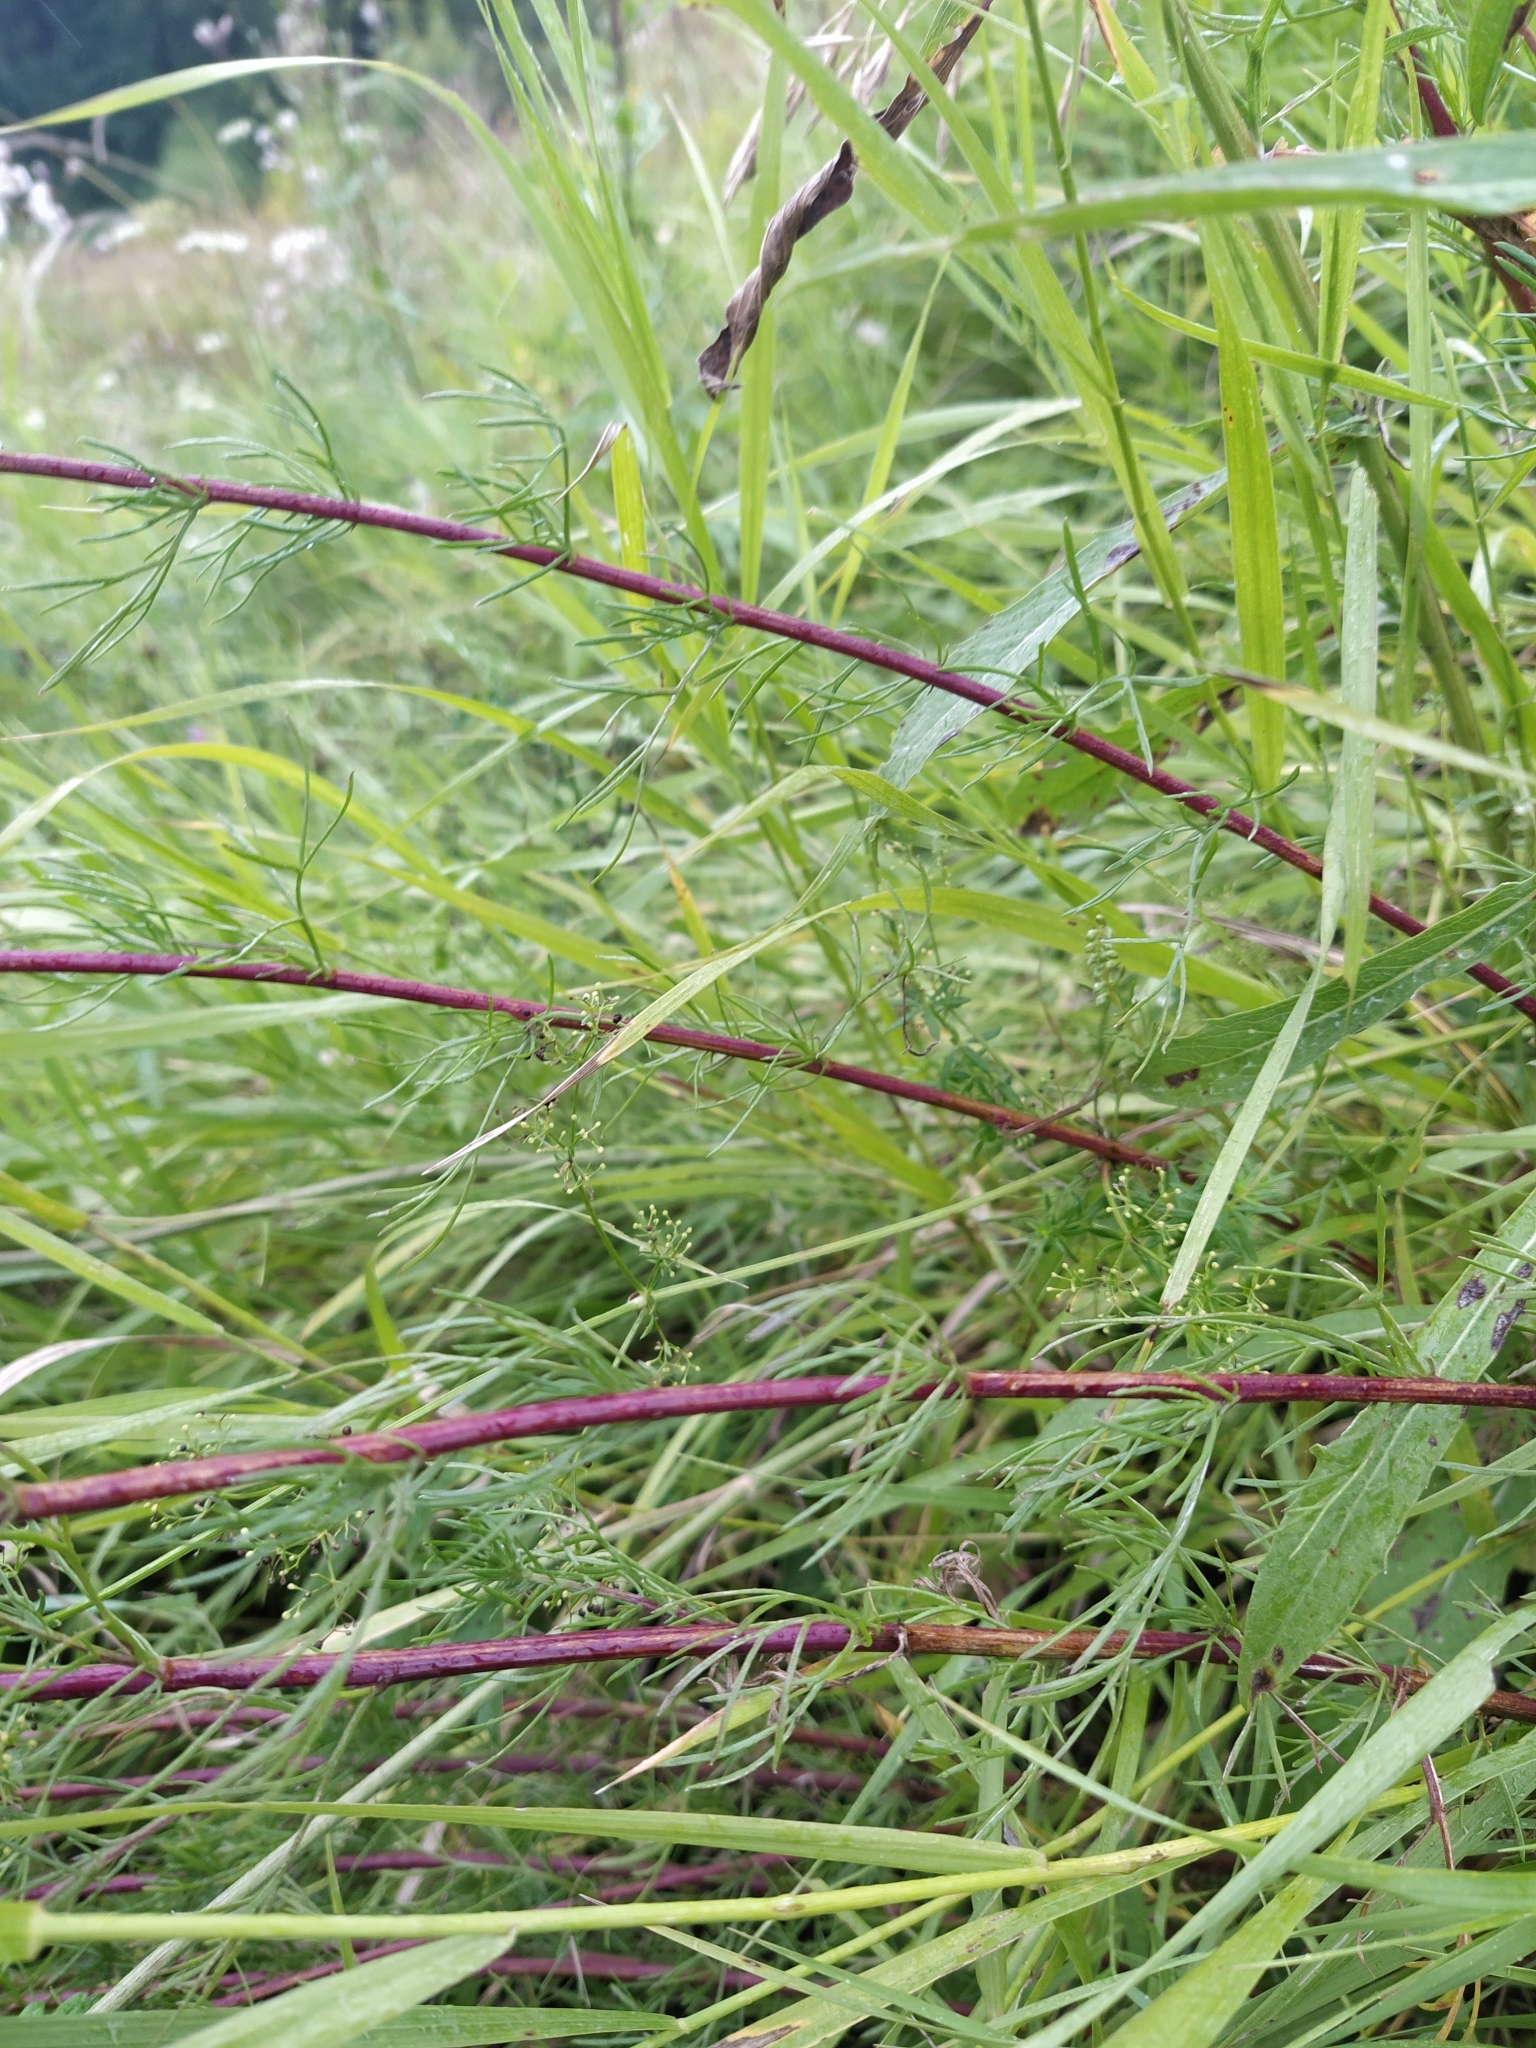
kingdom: Plantae
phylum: Tracheophyta
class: Magnoliopsida
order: Asterales
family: Asteraceae
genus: Artemisia
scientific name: Artemisia campestris
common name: Field wormwood
